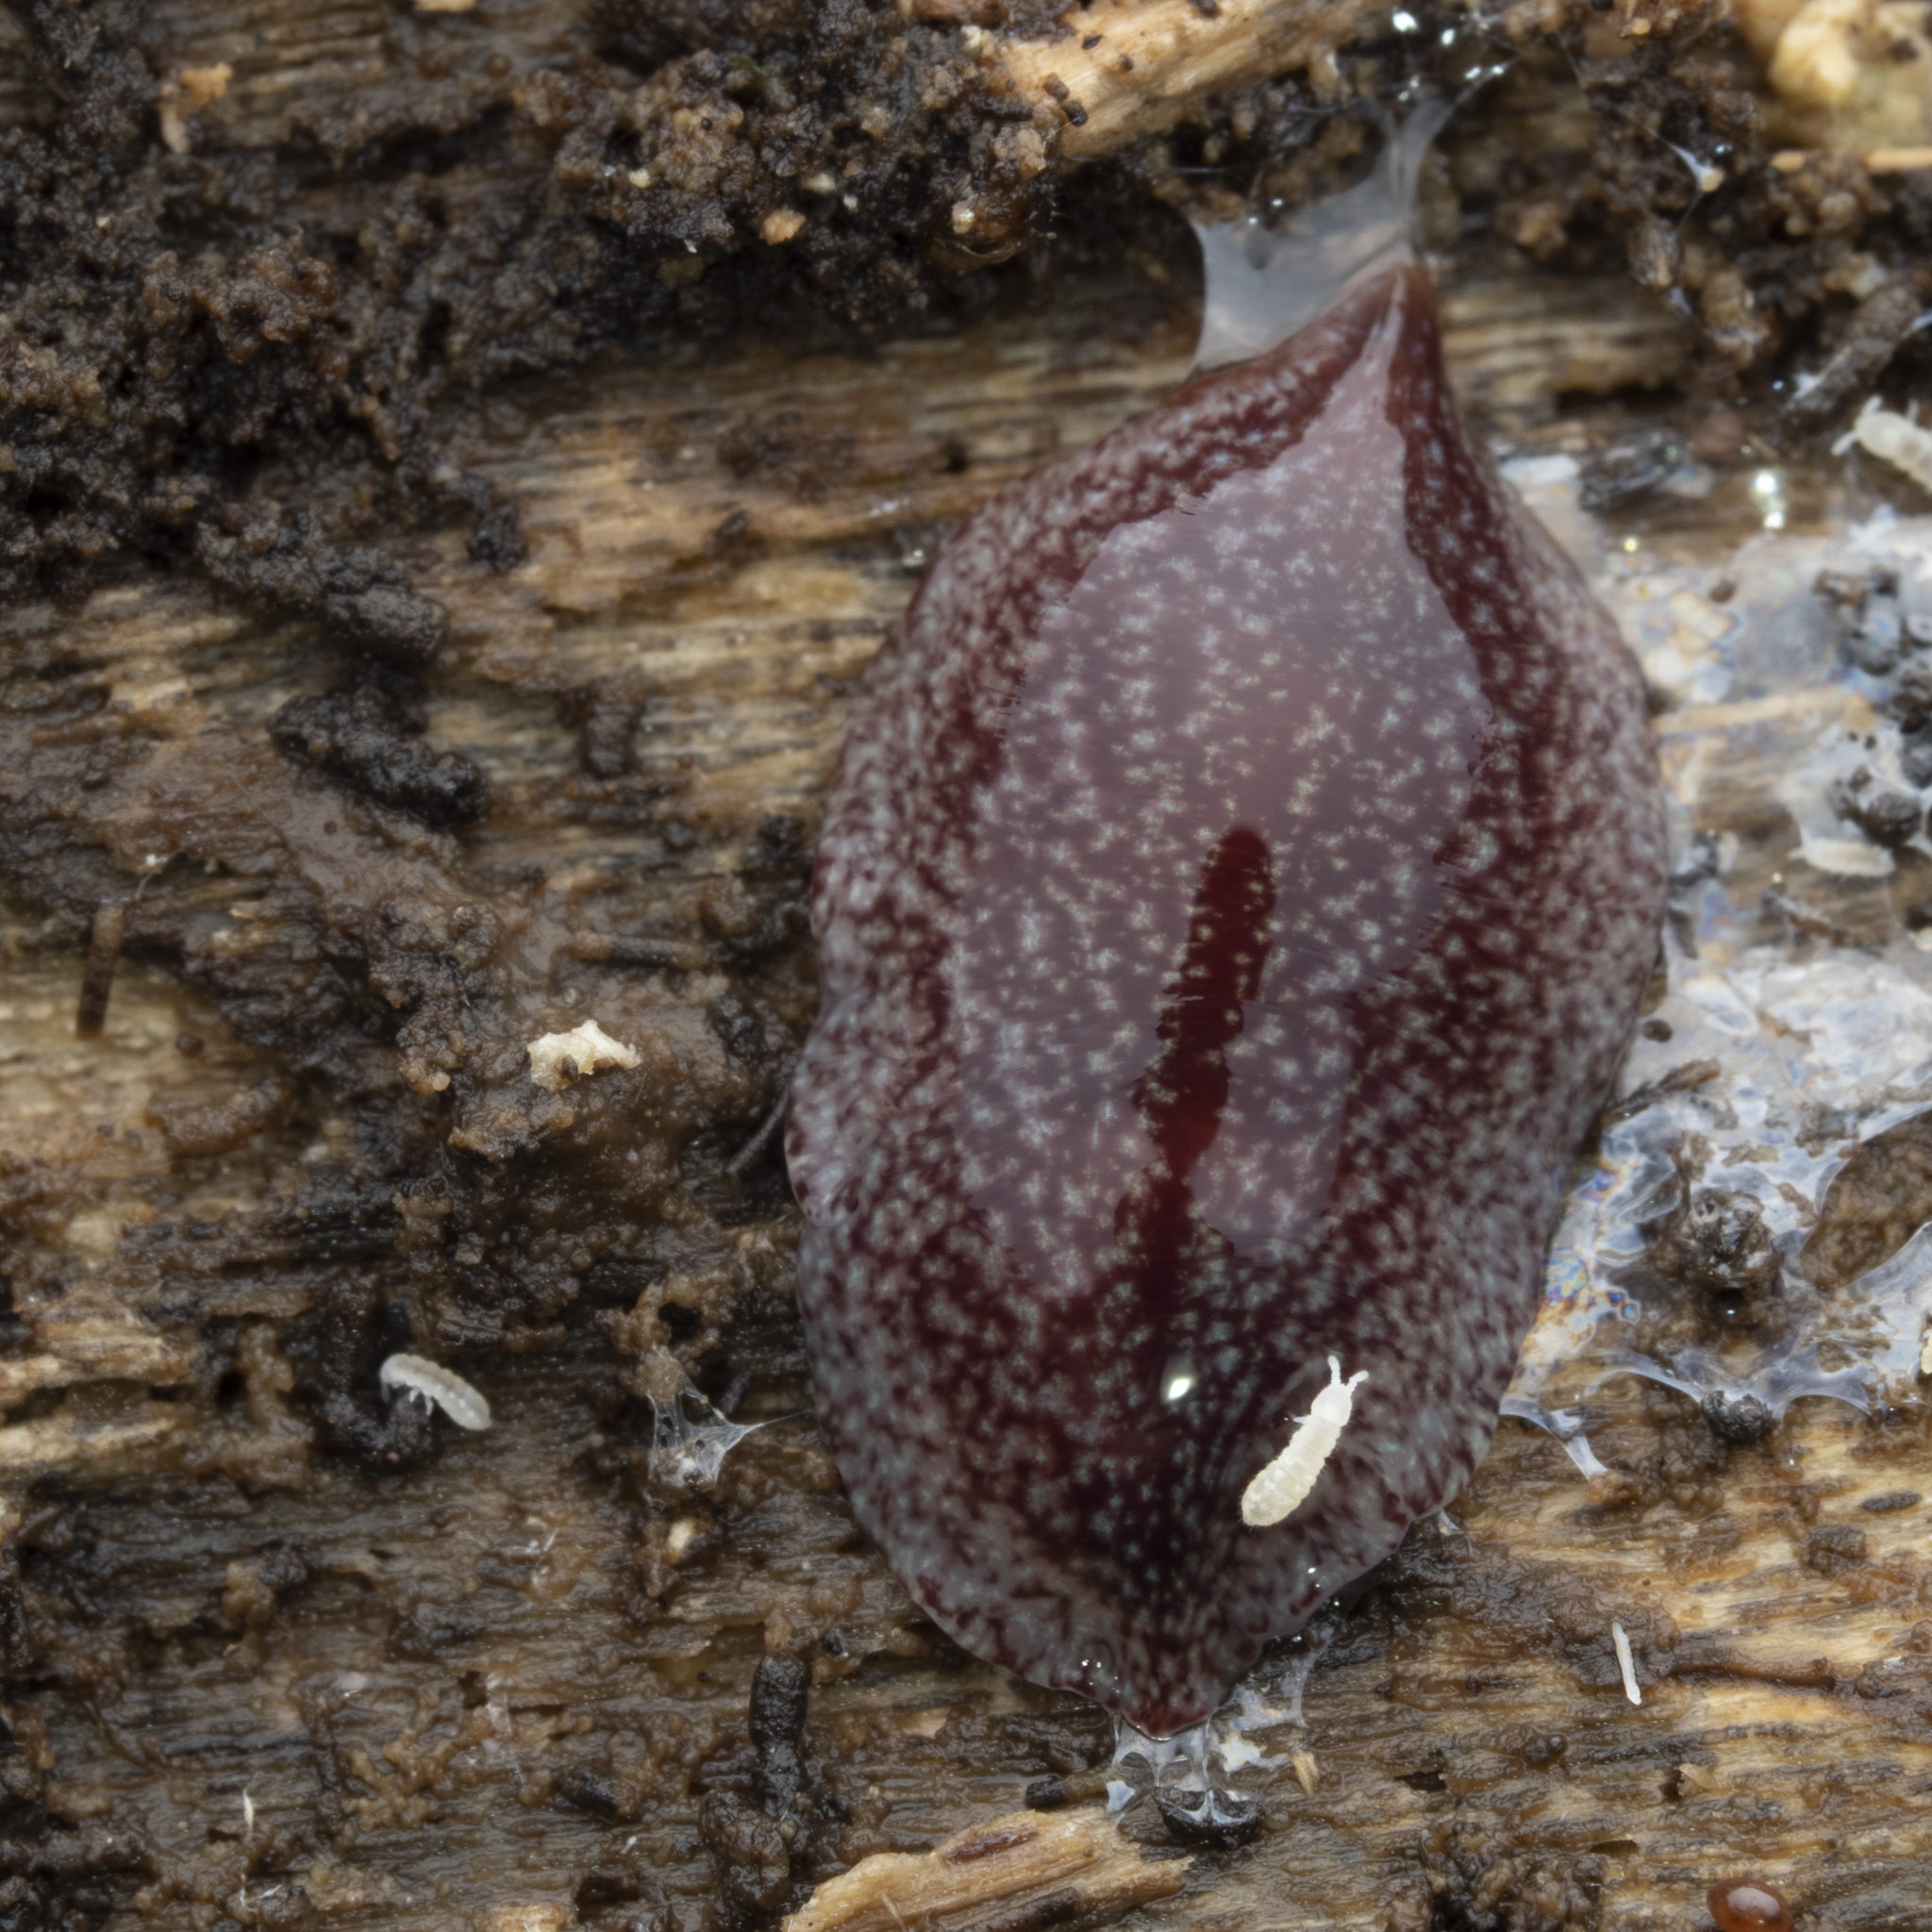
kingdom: Animalia
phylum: Platyhelminthes
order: Tricladida
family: Geoplanidae
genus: Australopacifica
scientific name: Australopacifica spectabilis
